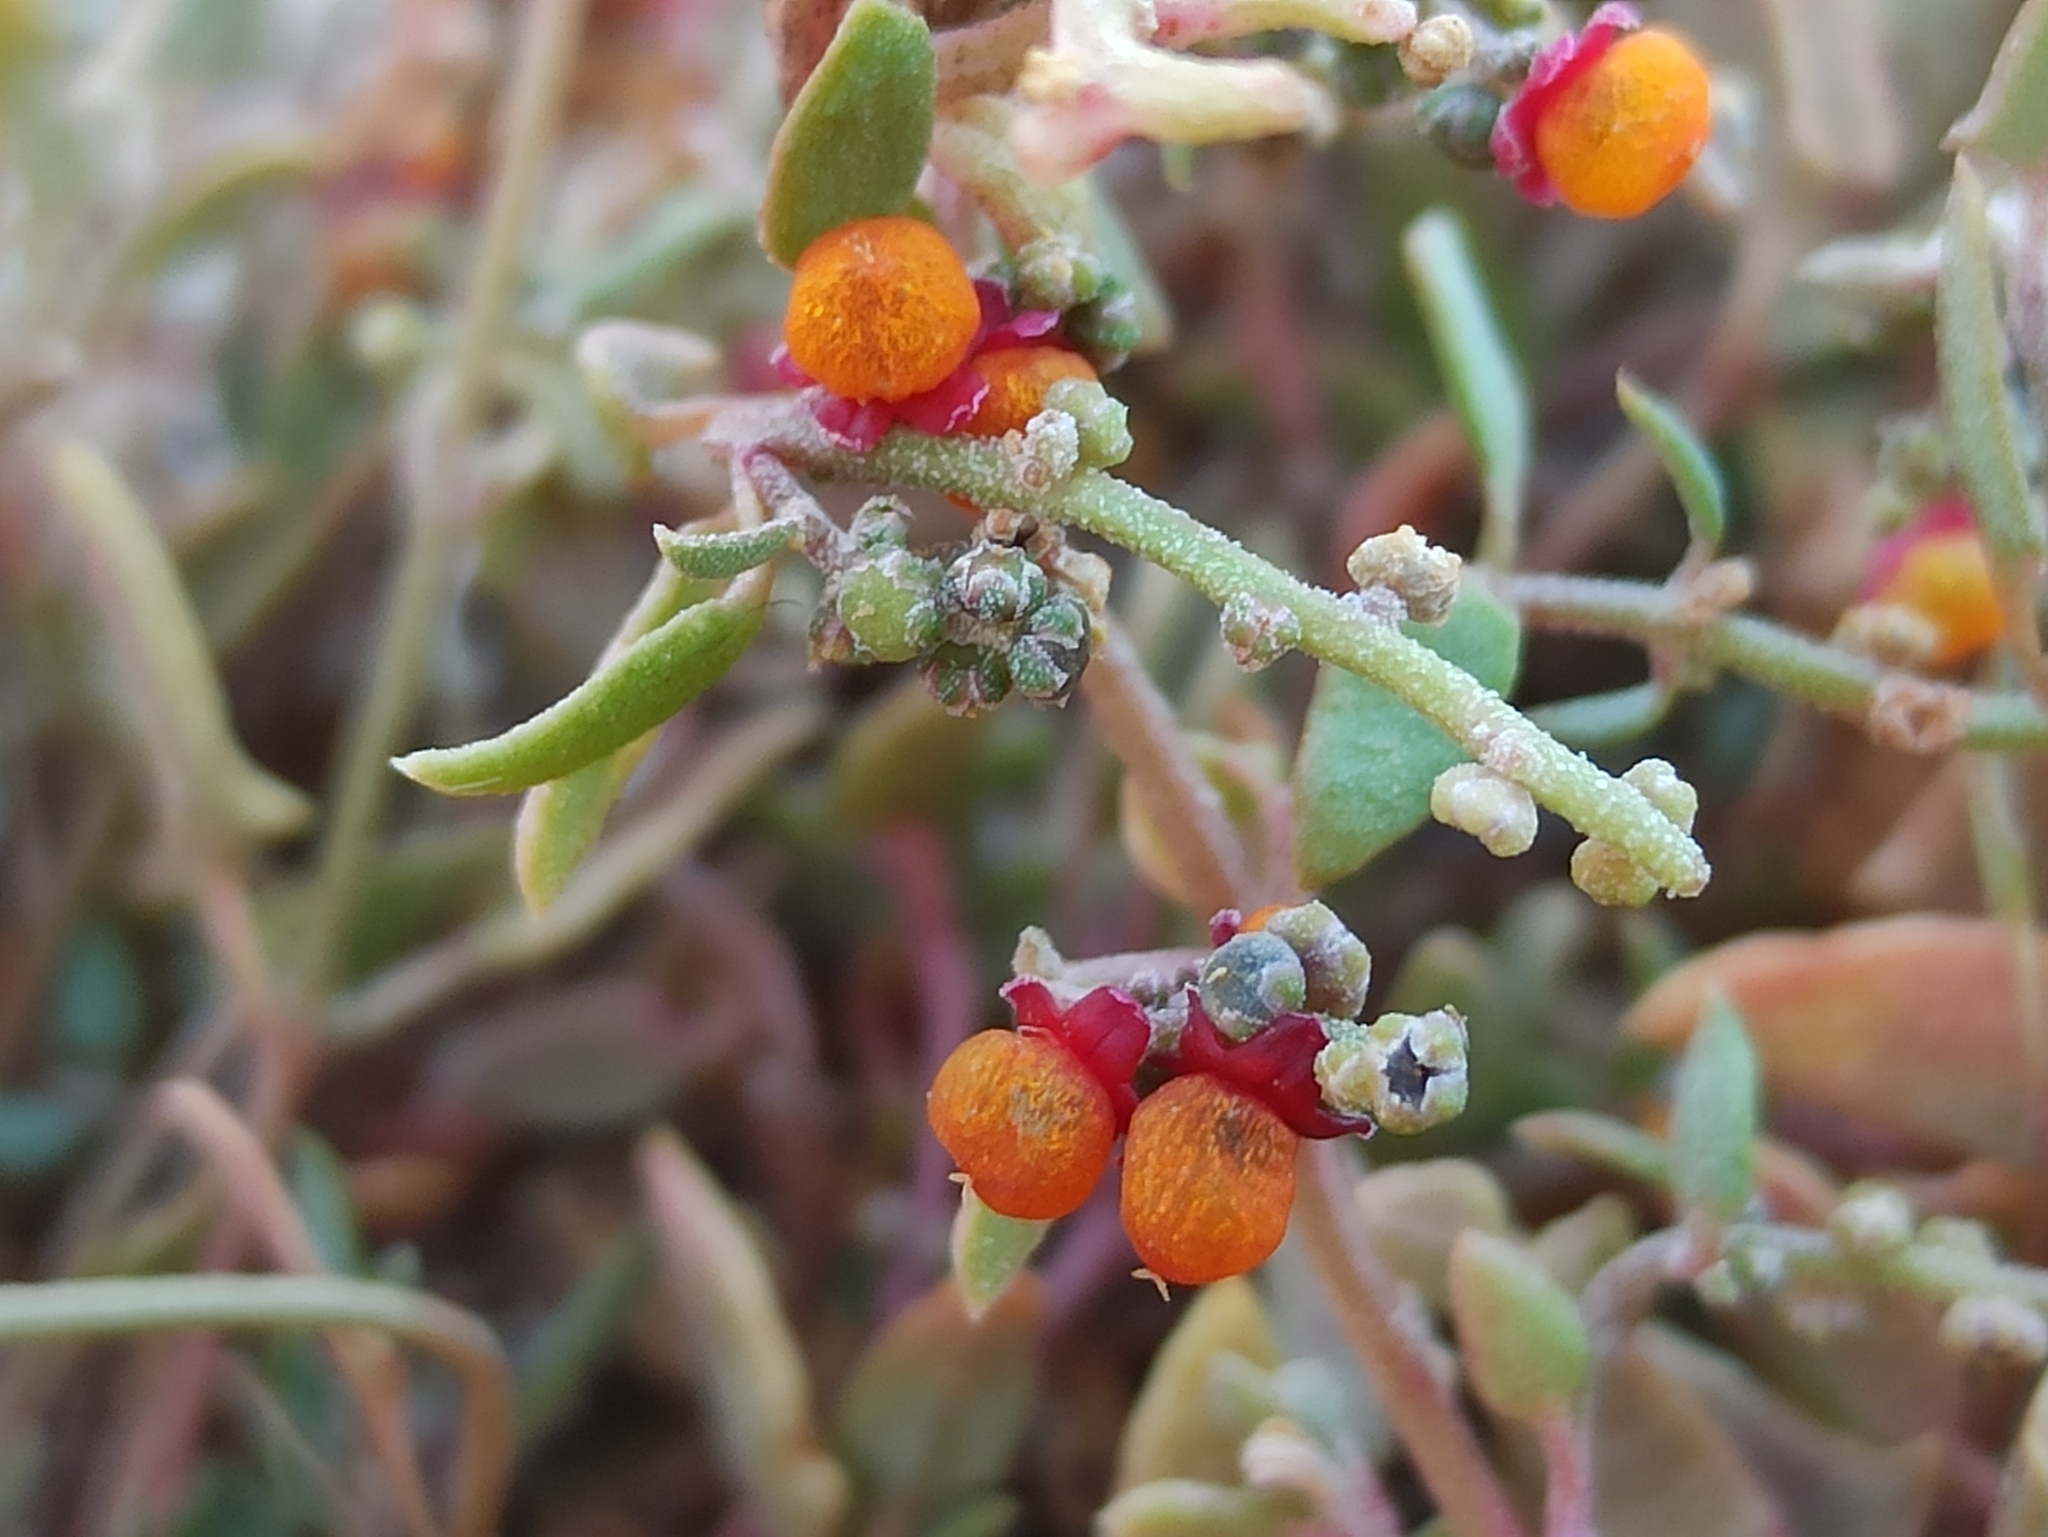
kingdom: Plantae
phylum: Tracheophyta
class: Magnoliopsida
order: Caryophyllales
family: Amaranthaceae
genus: Chenopodium
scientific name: Chenopodium nutans
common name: Climbing-saltbush
